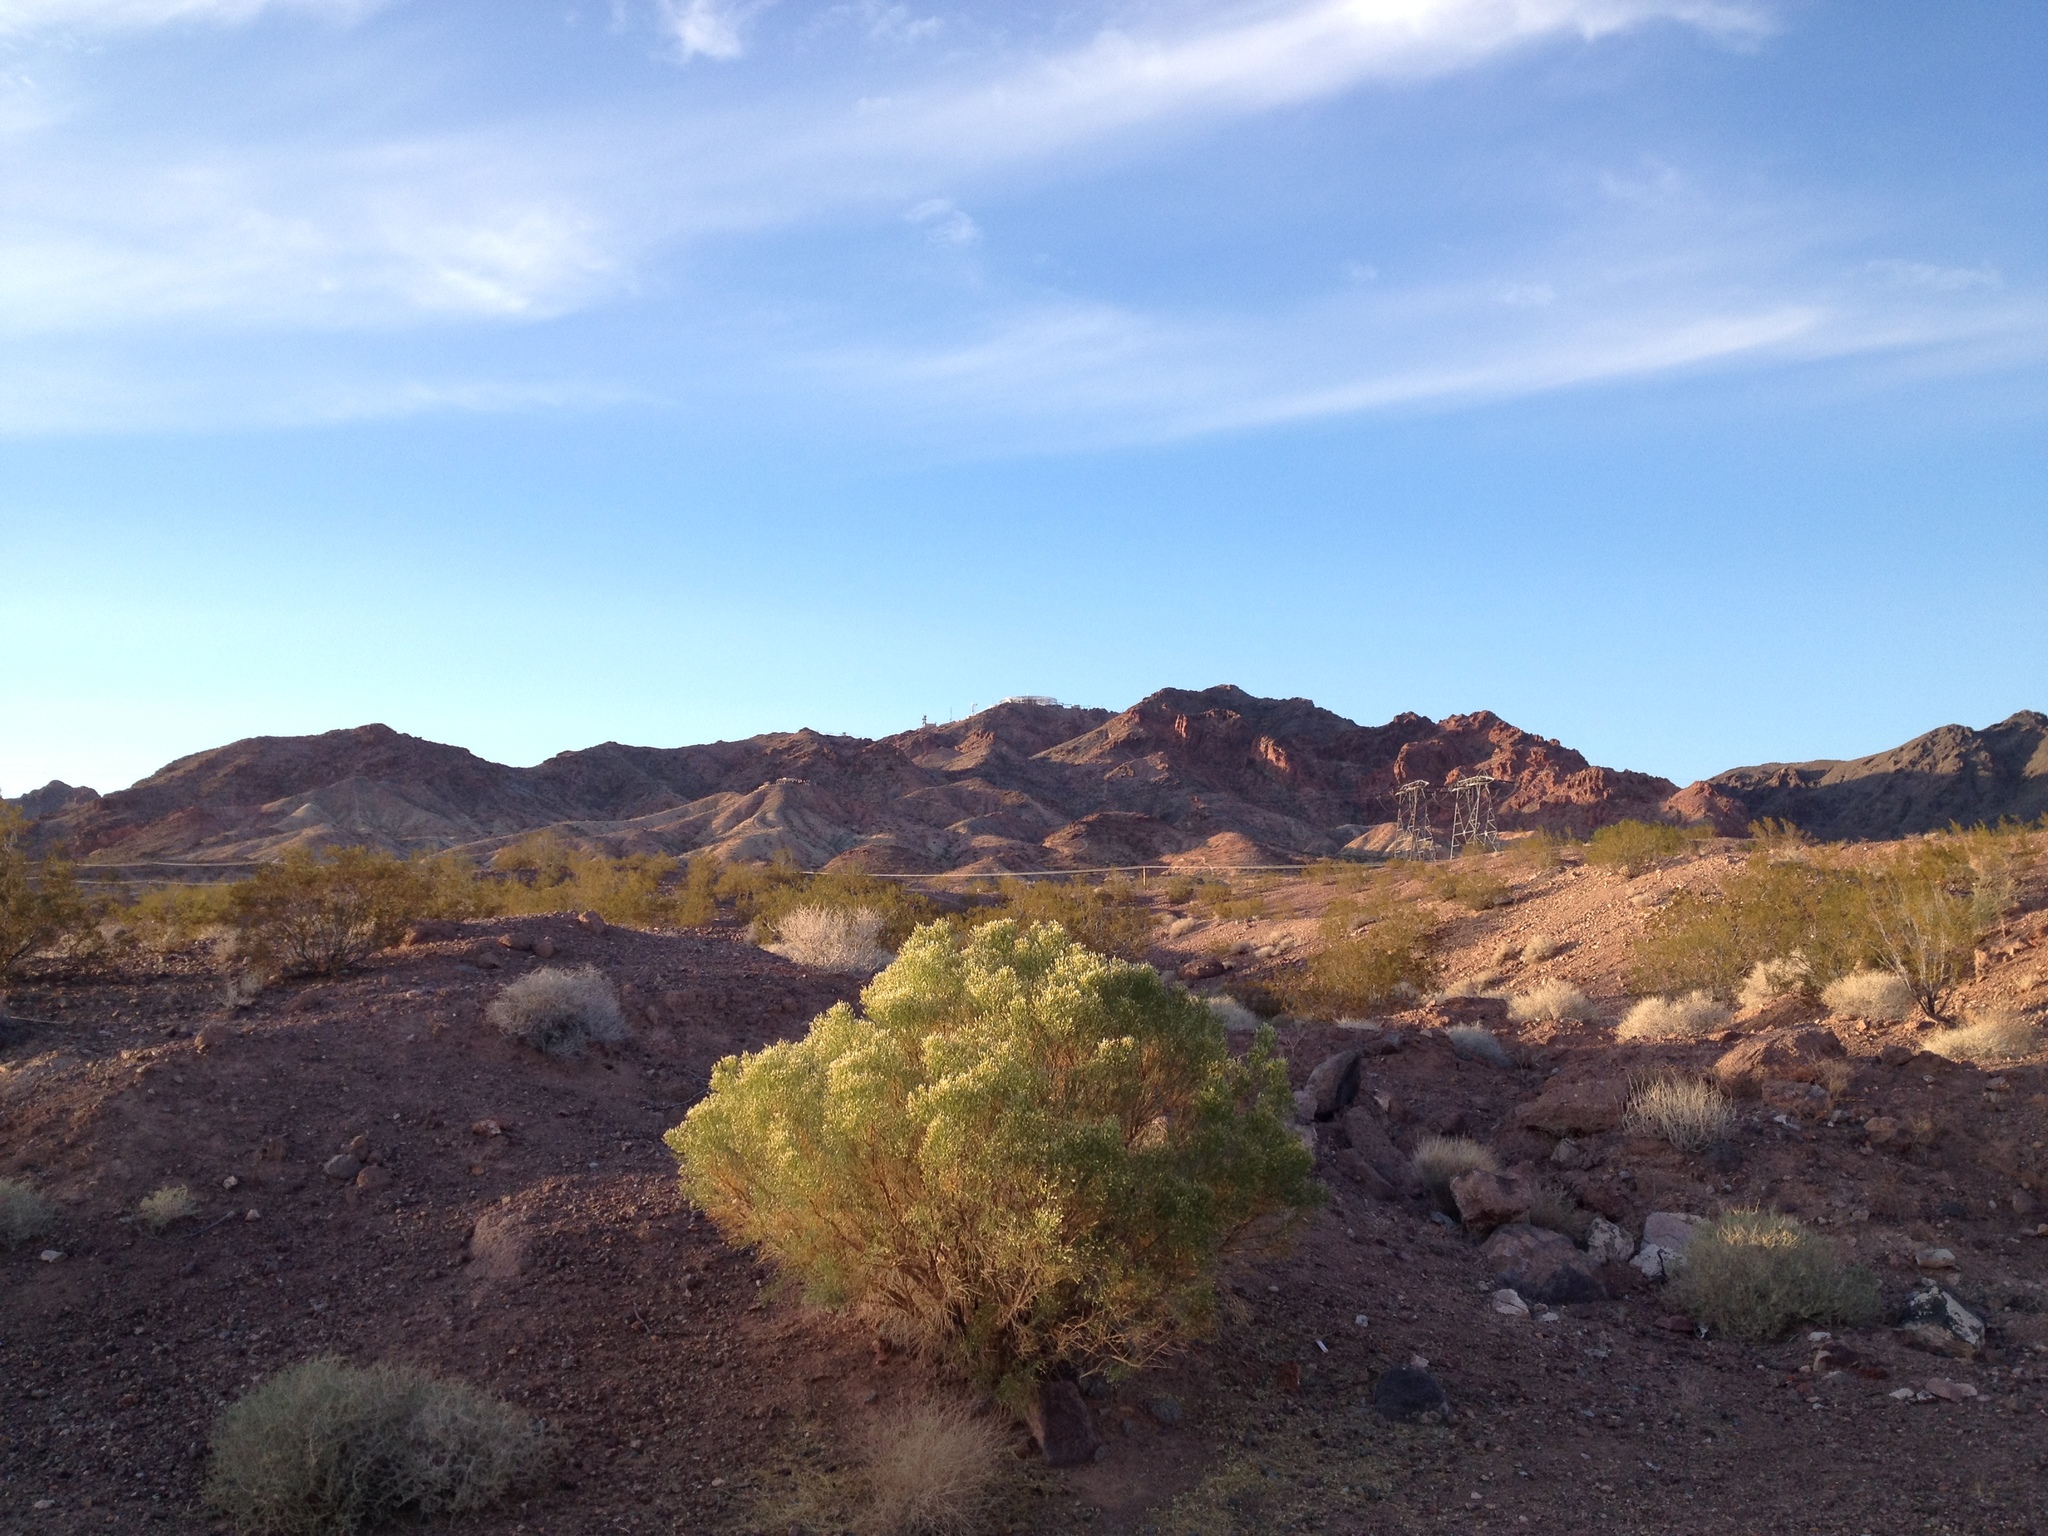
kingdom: Plantae
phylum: Tracheophyta
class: Magnoliopsida
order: Asterales
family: Asteraceae
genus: Baccharis
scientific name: Baccharis sarothroides
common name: Desert-broom
